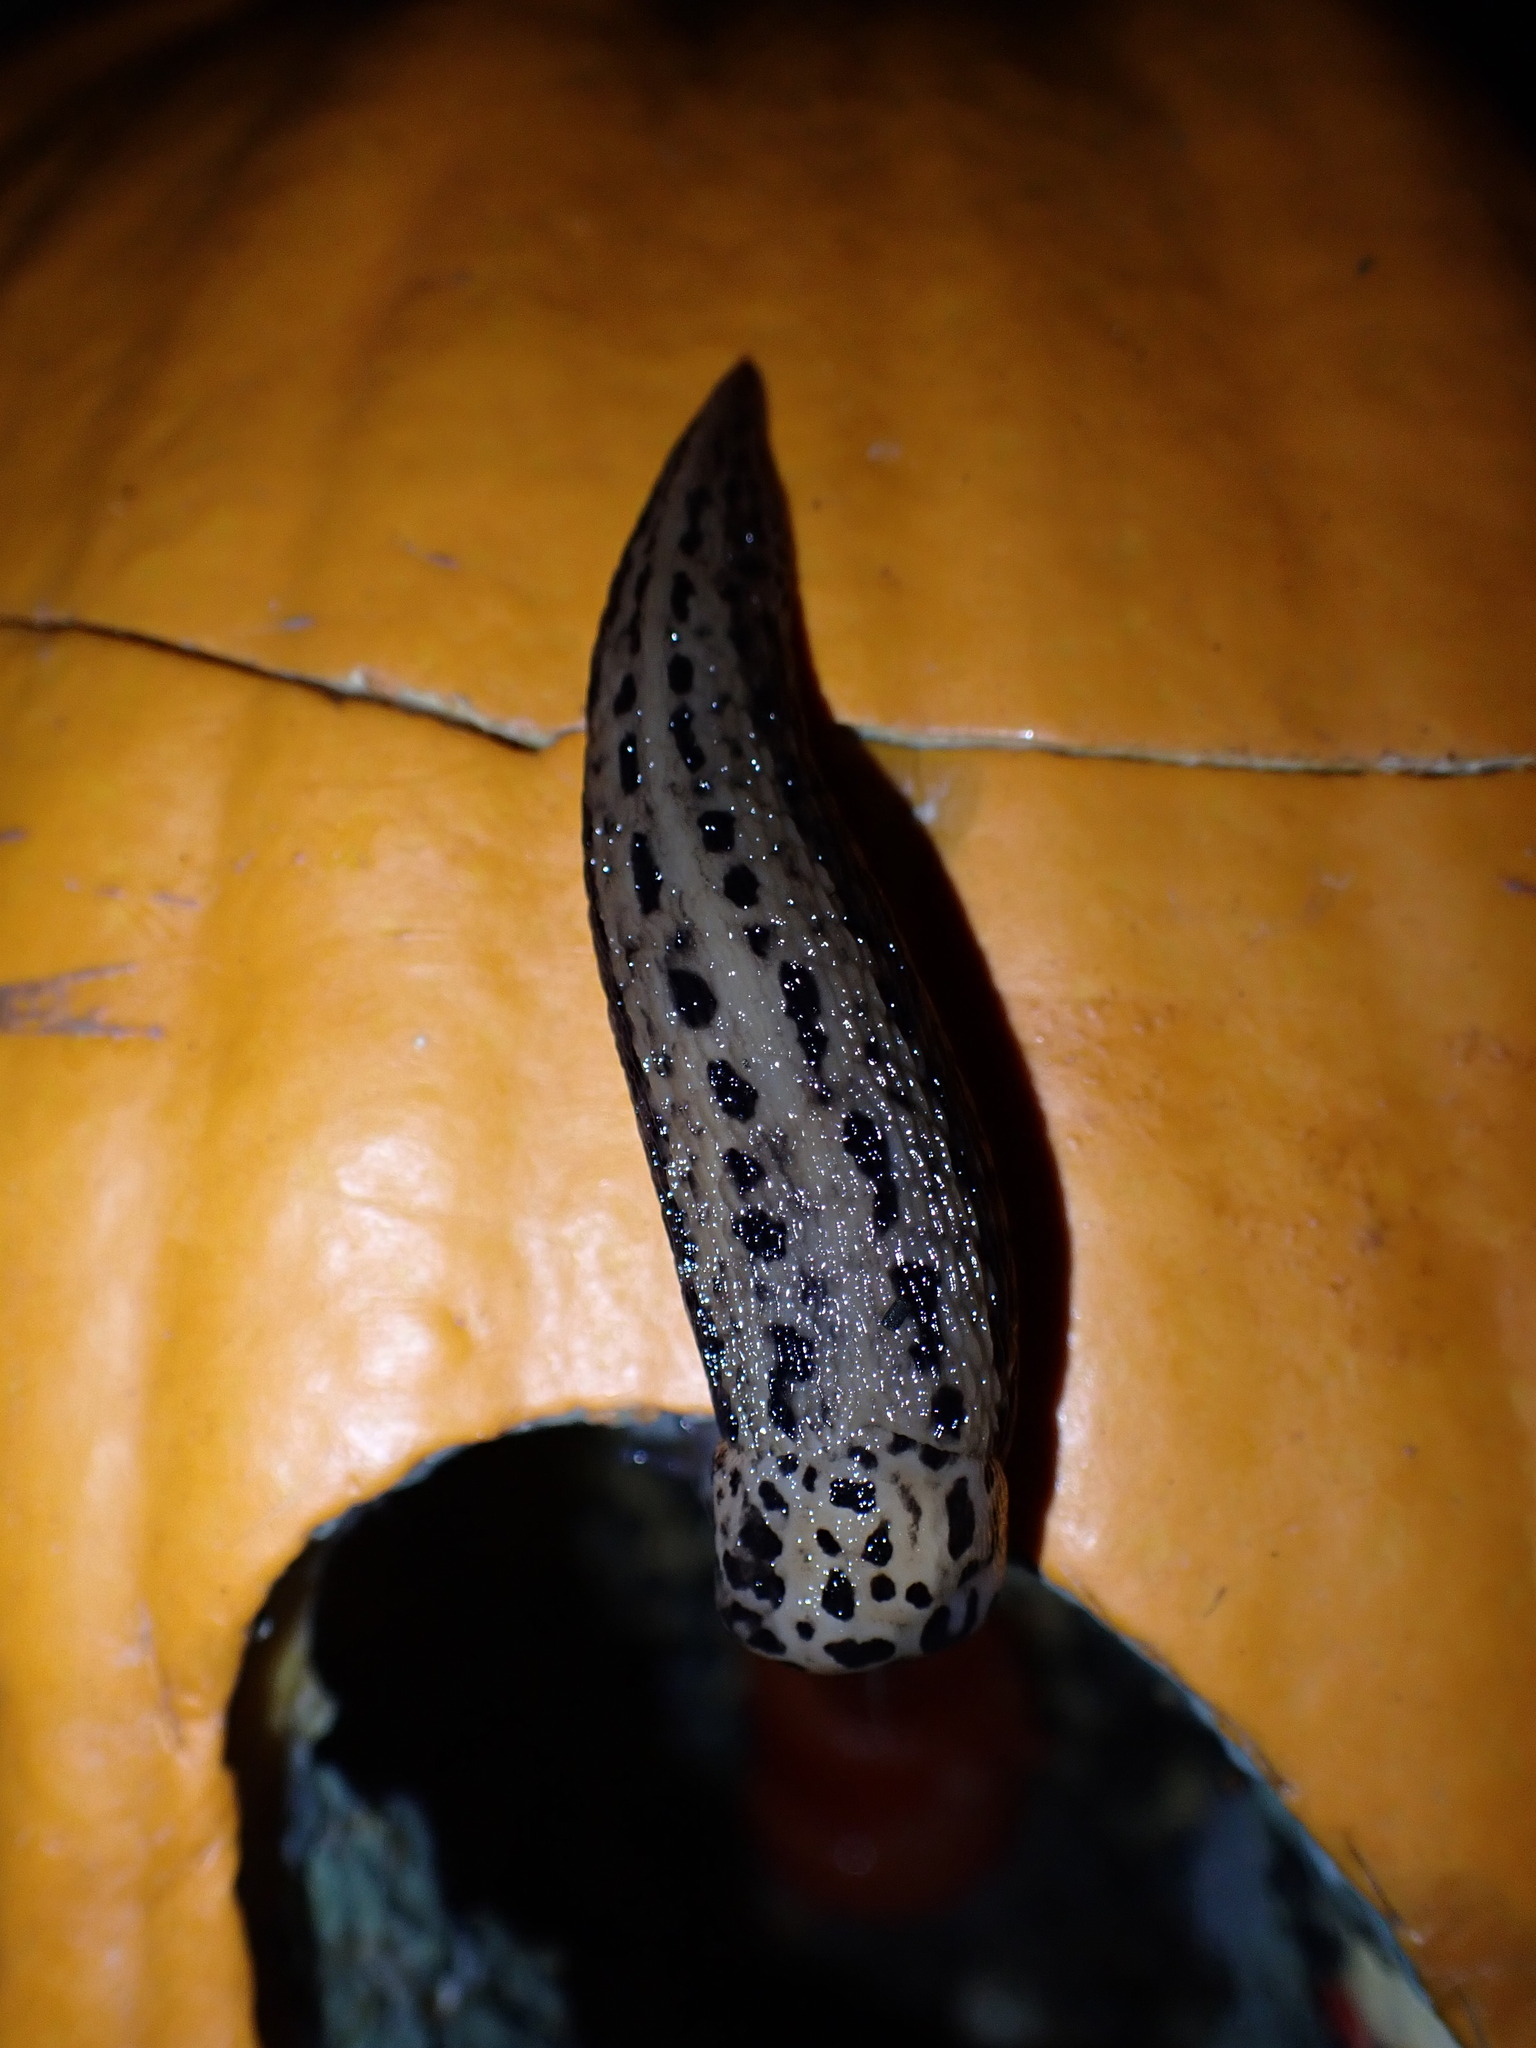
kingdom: Animalia
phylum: Mollusca
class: Gastropoda
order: Stylommatophora
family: Limacidae
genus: Limax
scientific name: Limax maximus
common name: Great grey slug
